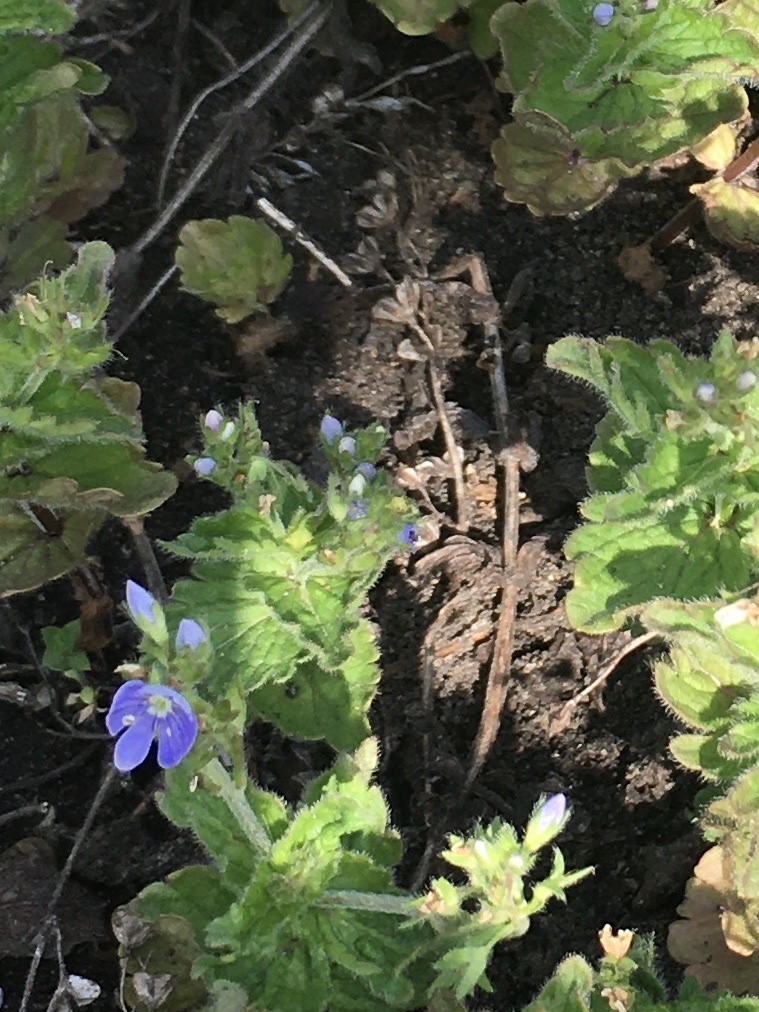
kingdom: Plantae
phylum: Tracheophyta
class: Magnoliopsida
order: Lamiales
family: Plantaginaceae
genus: Veronica
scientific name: Veronica chamaedrys
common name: Germander speedwell
